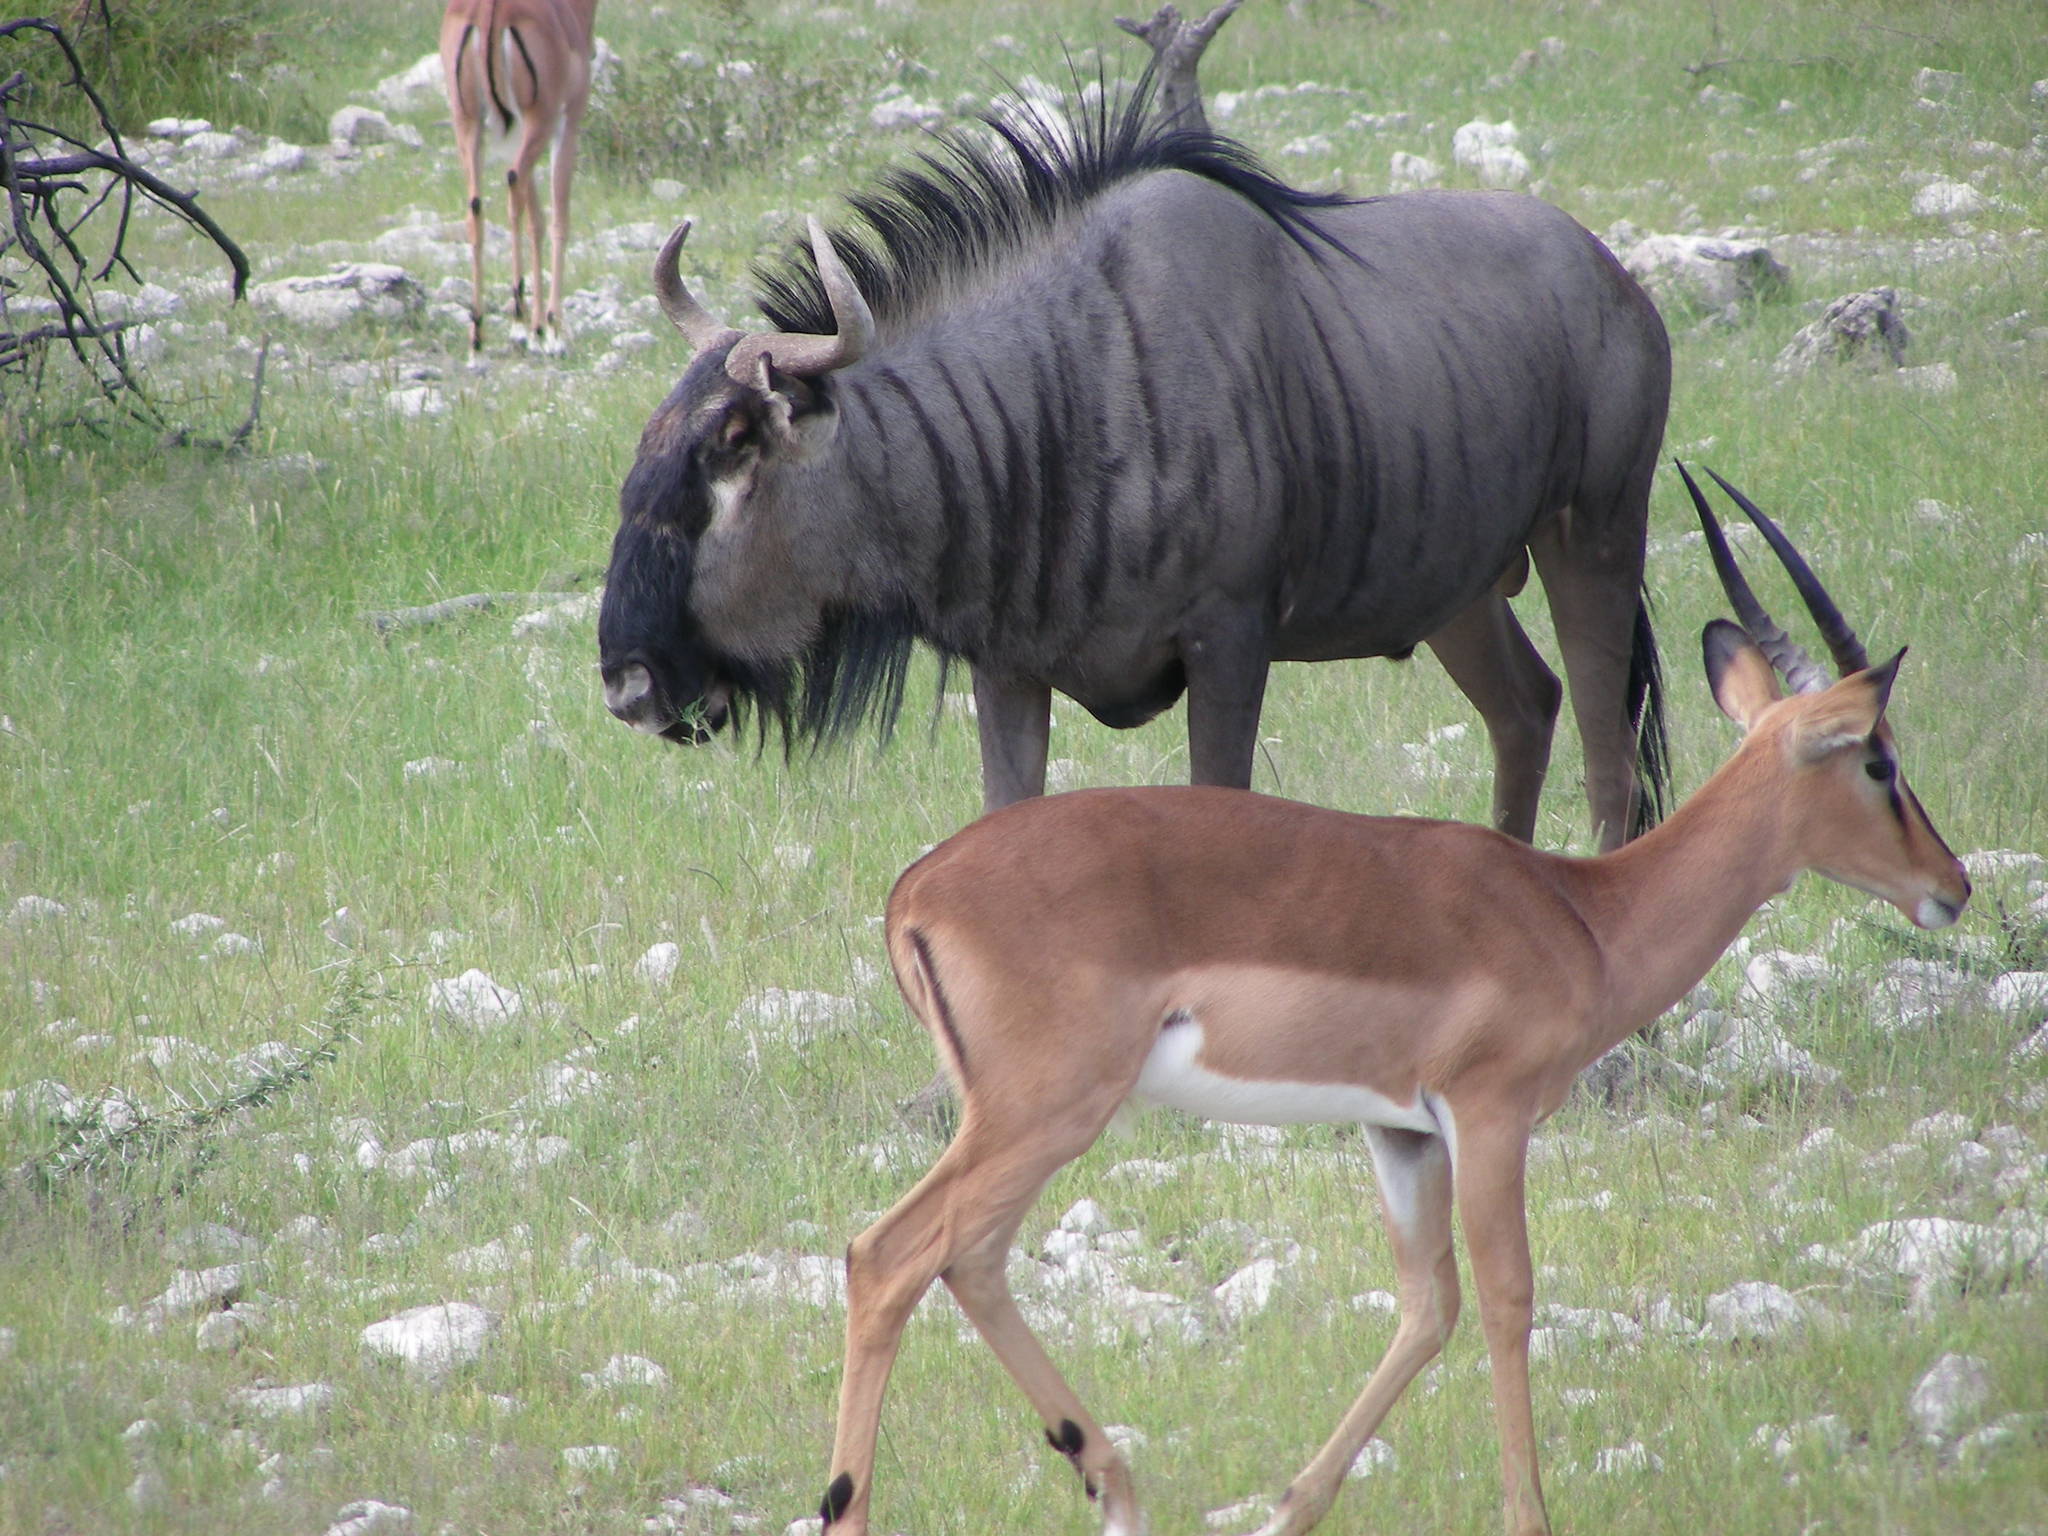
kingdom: Animalia
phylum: Chordata
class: Mammalia
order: Artiodactyla
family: Bovidae
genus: Connochaetes
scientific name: Connochaetes taurinus
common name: Blue wildebeest
